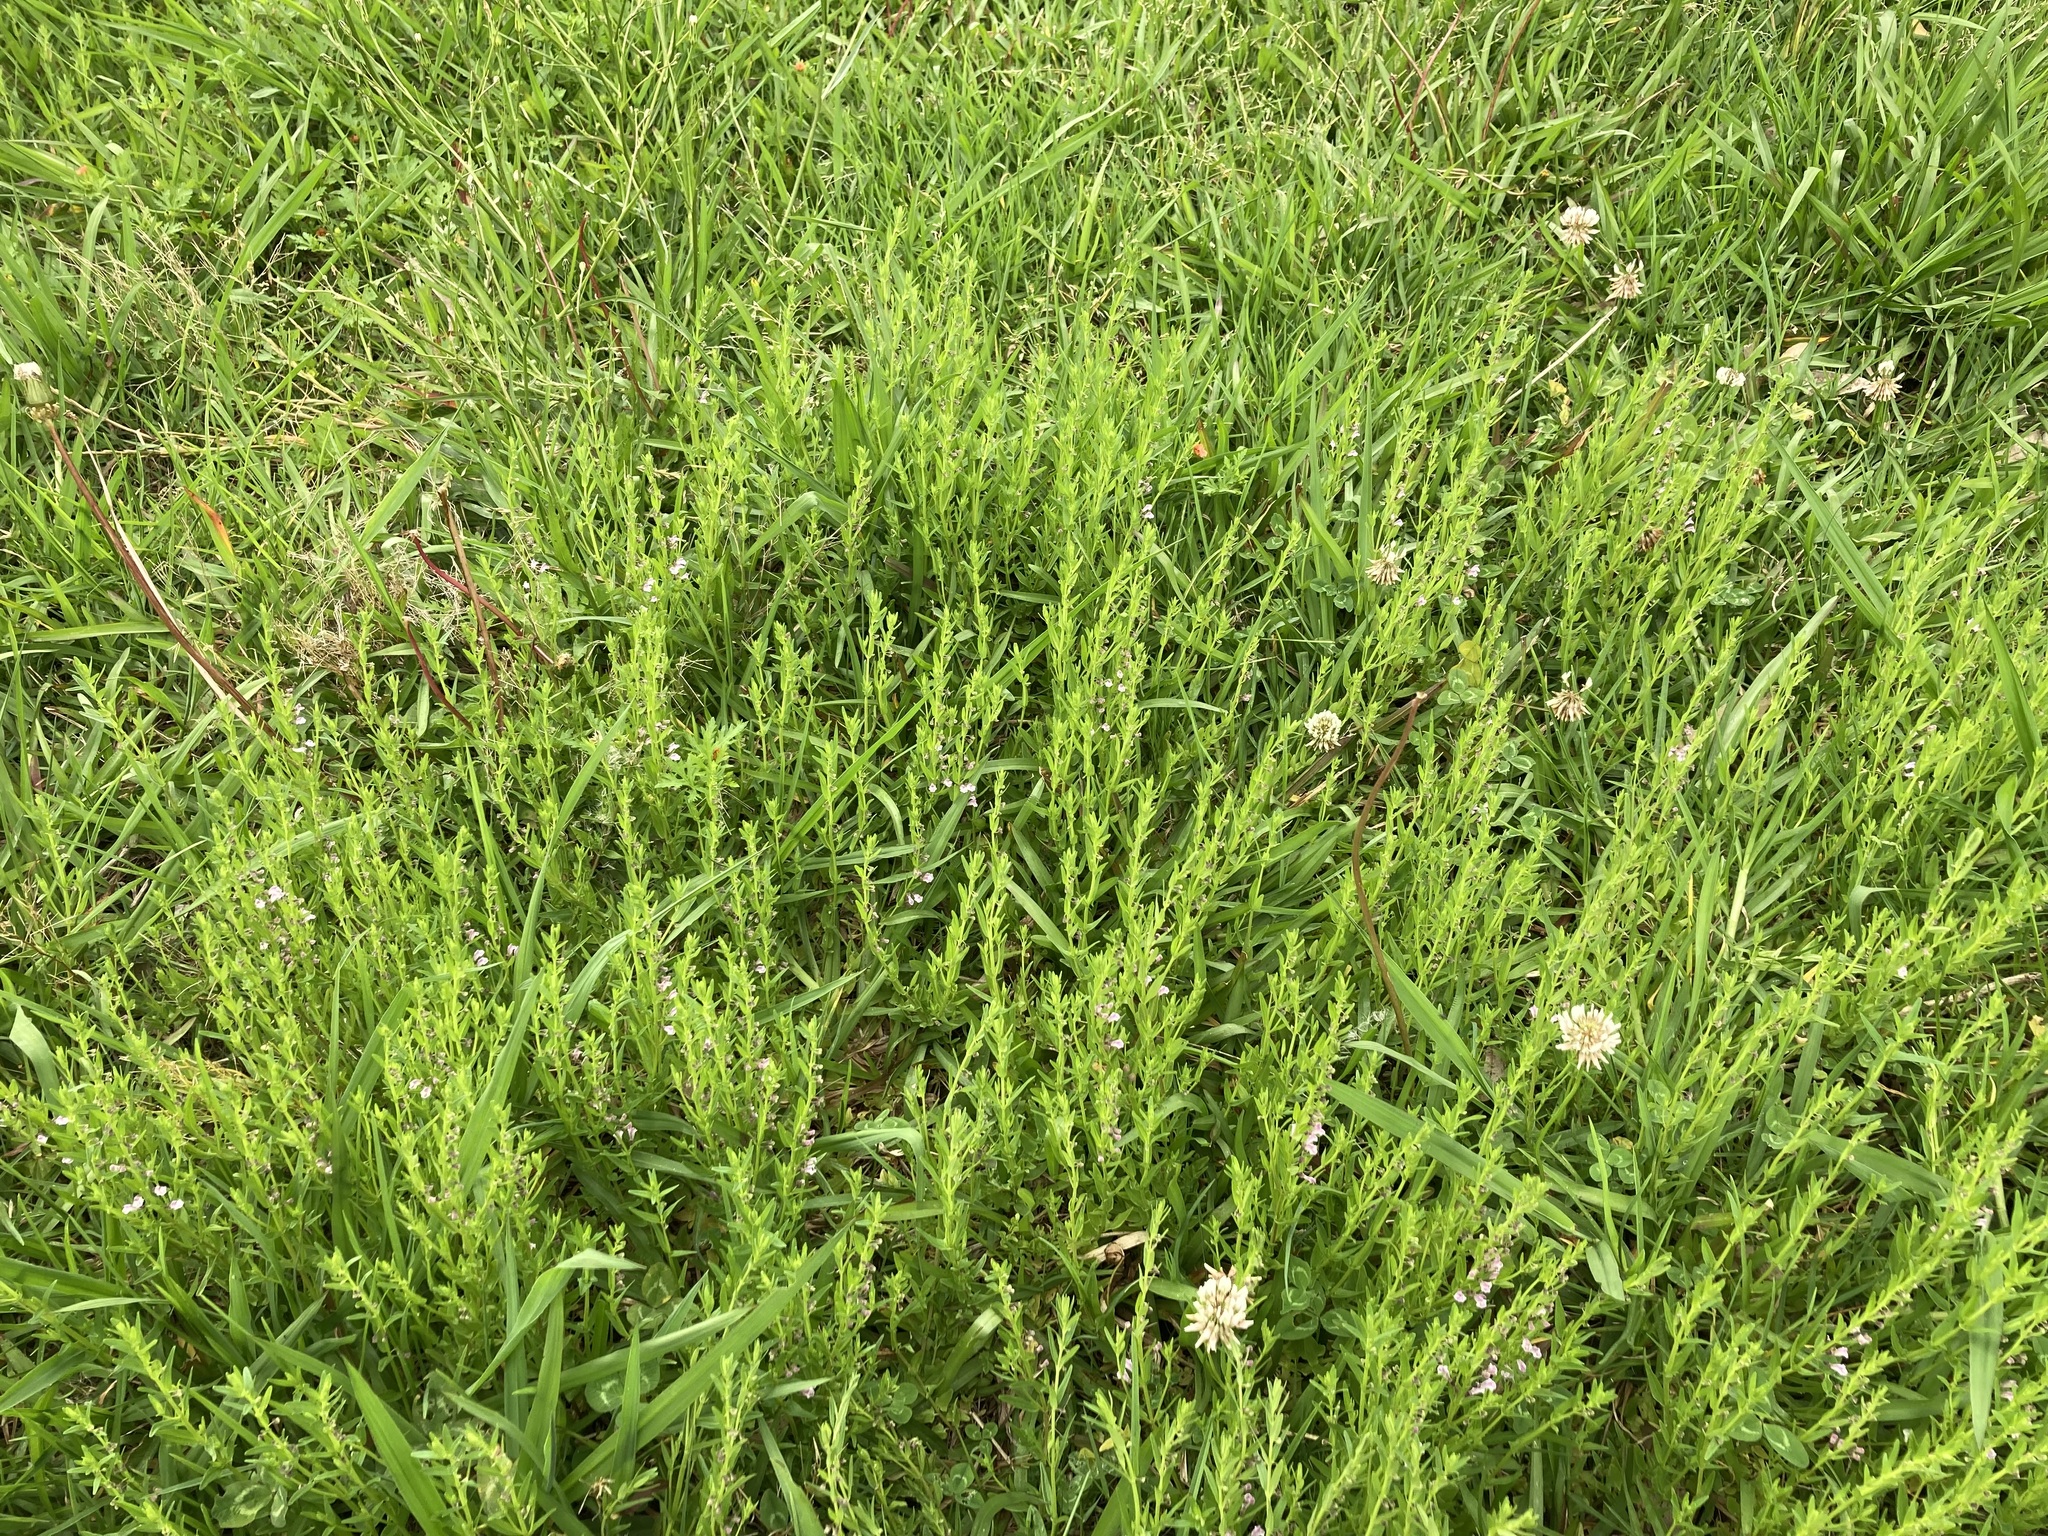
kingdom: Plantae
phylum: Tracheophyta
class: Magnoliopsida
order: Lamiales
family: Lamiaceae
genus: Scutellaria
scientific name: Scutellaria racemosa
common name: South american skullcap
